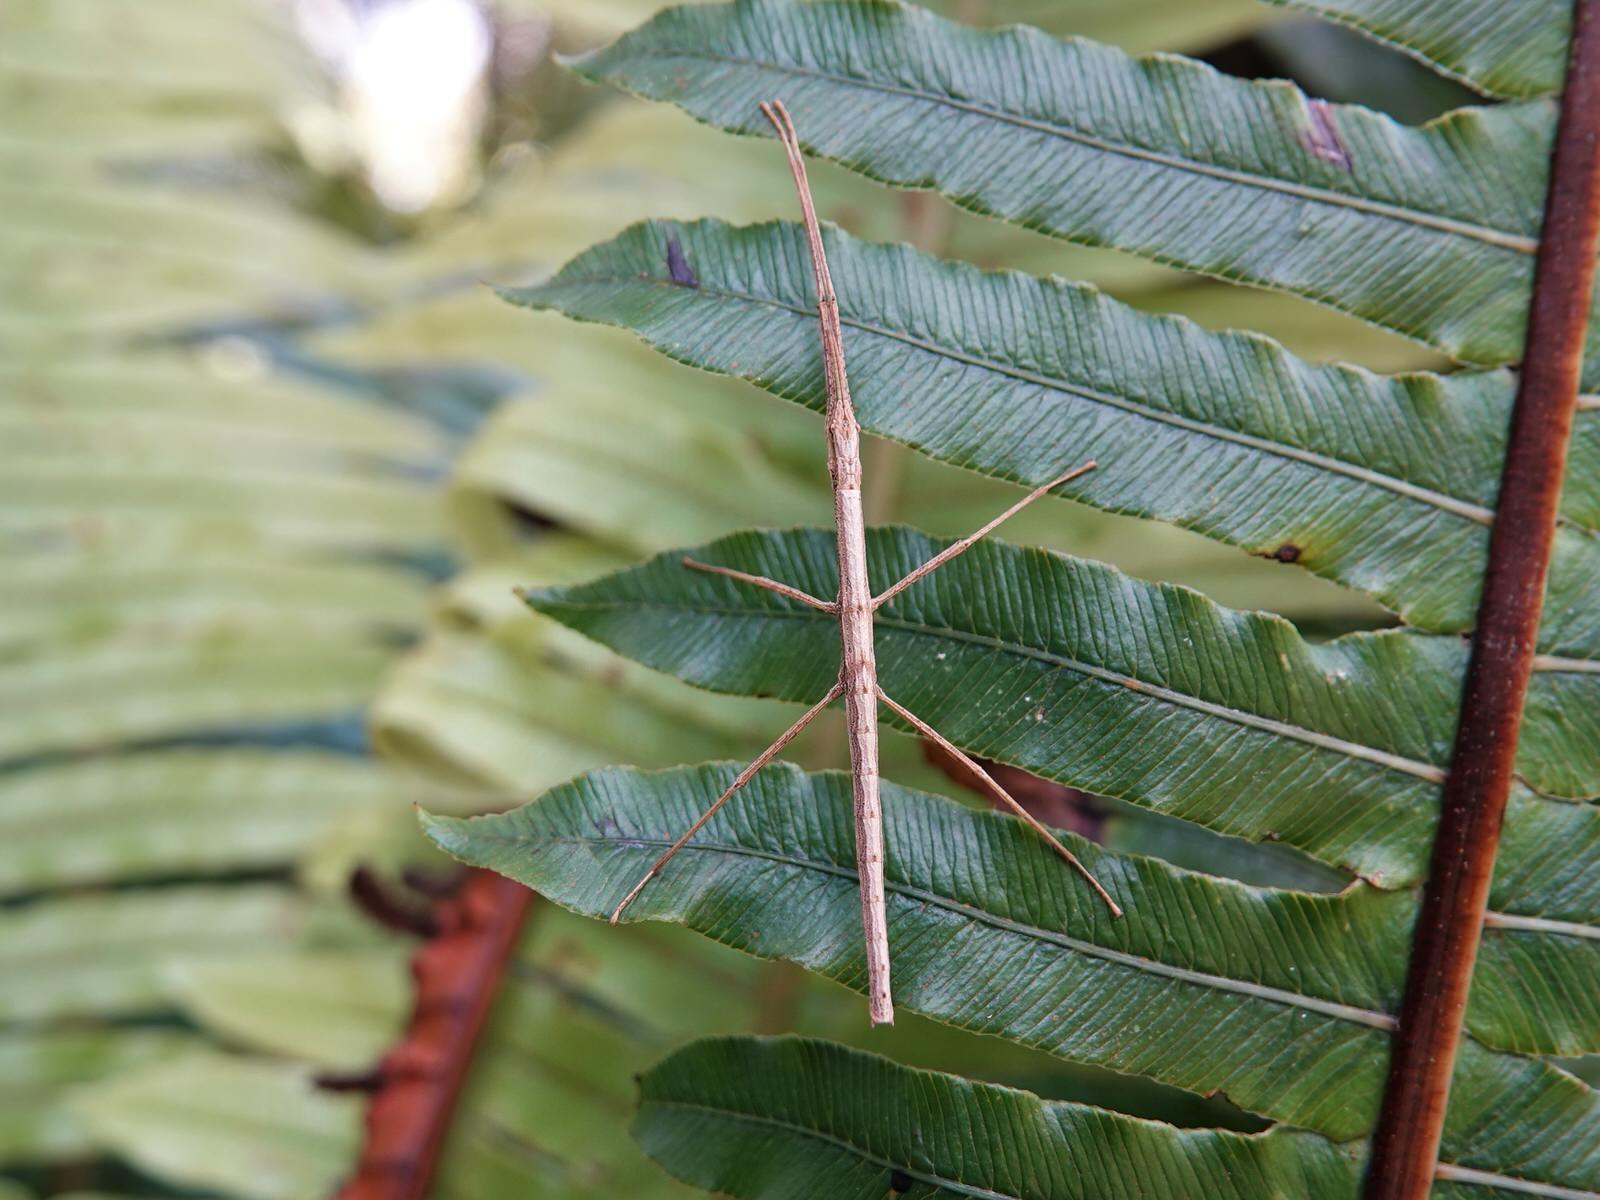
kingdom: Animalia
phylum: Arthropoda
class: Insecta
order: Phasmida
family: Phasmatidae
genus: Asteliaphasma
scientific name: Asteliaphasma jucundum
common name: The kauri forest stick insect
